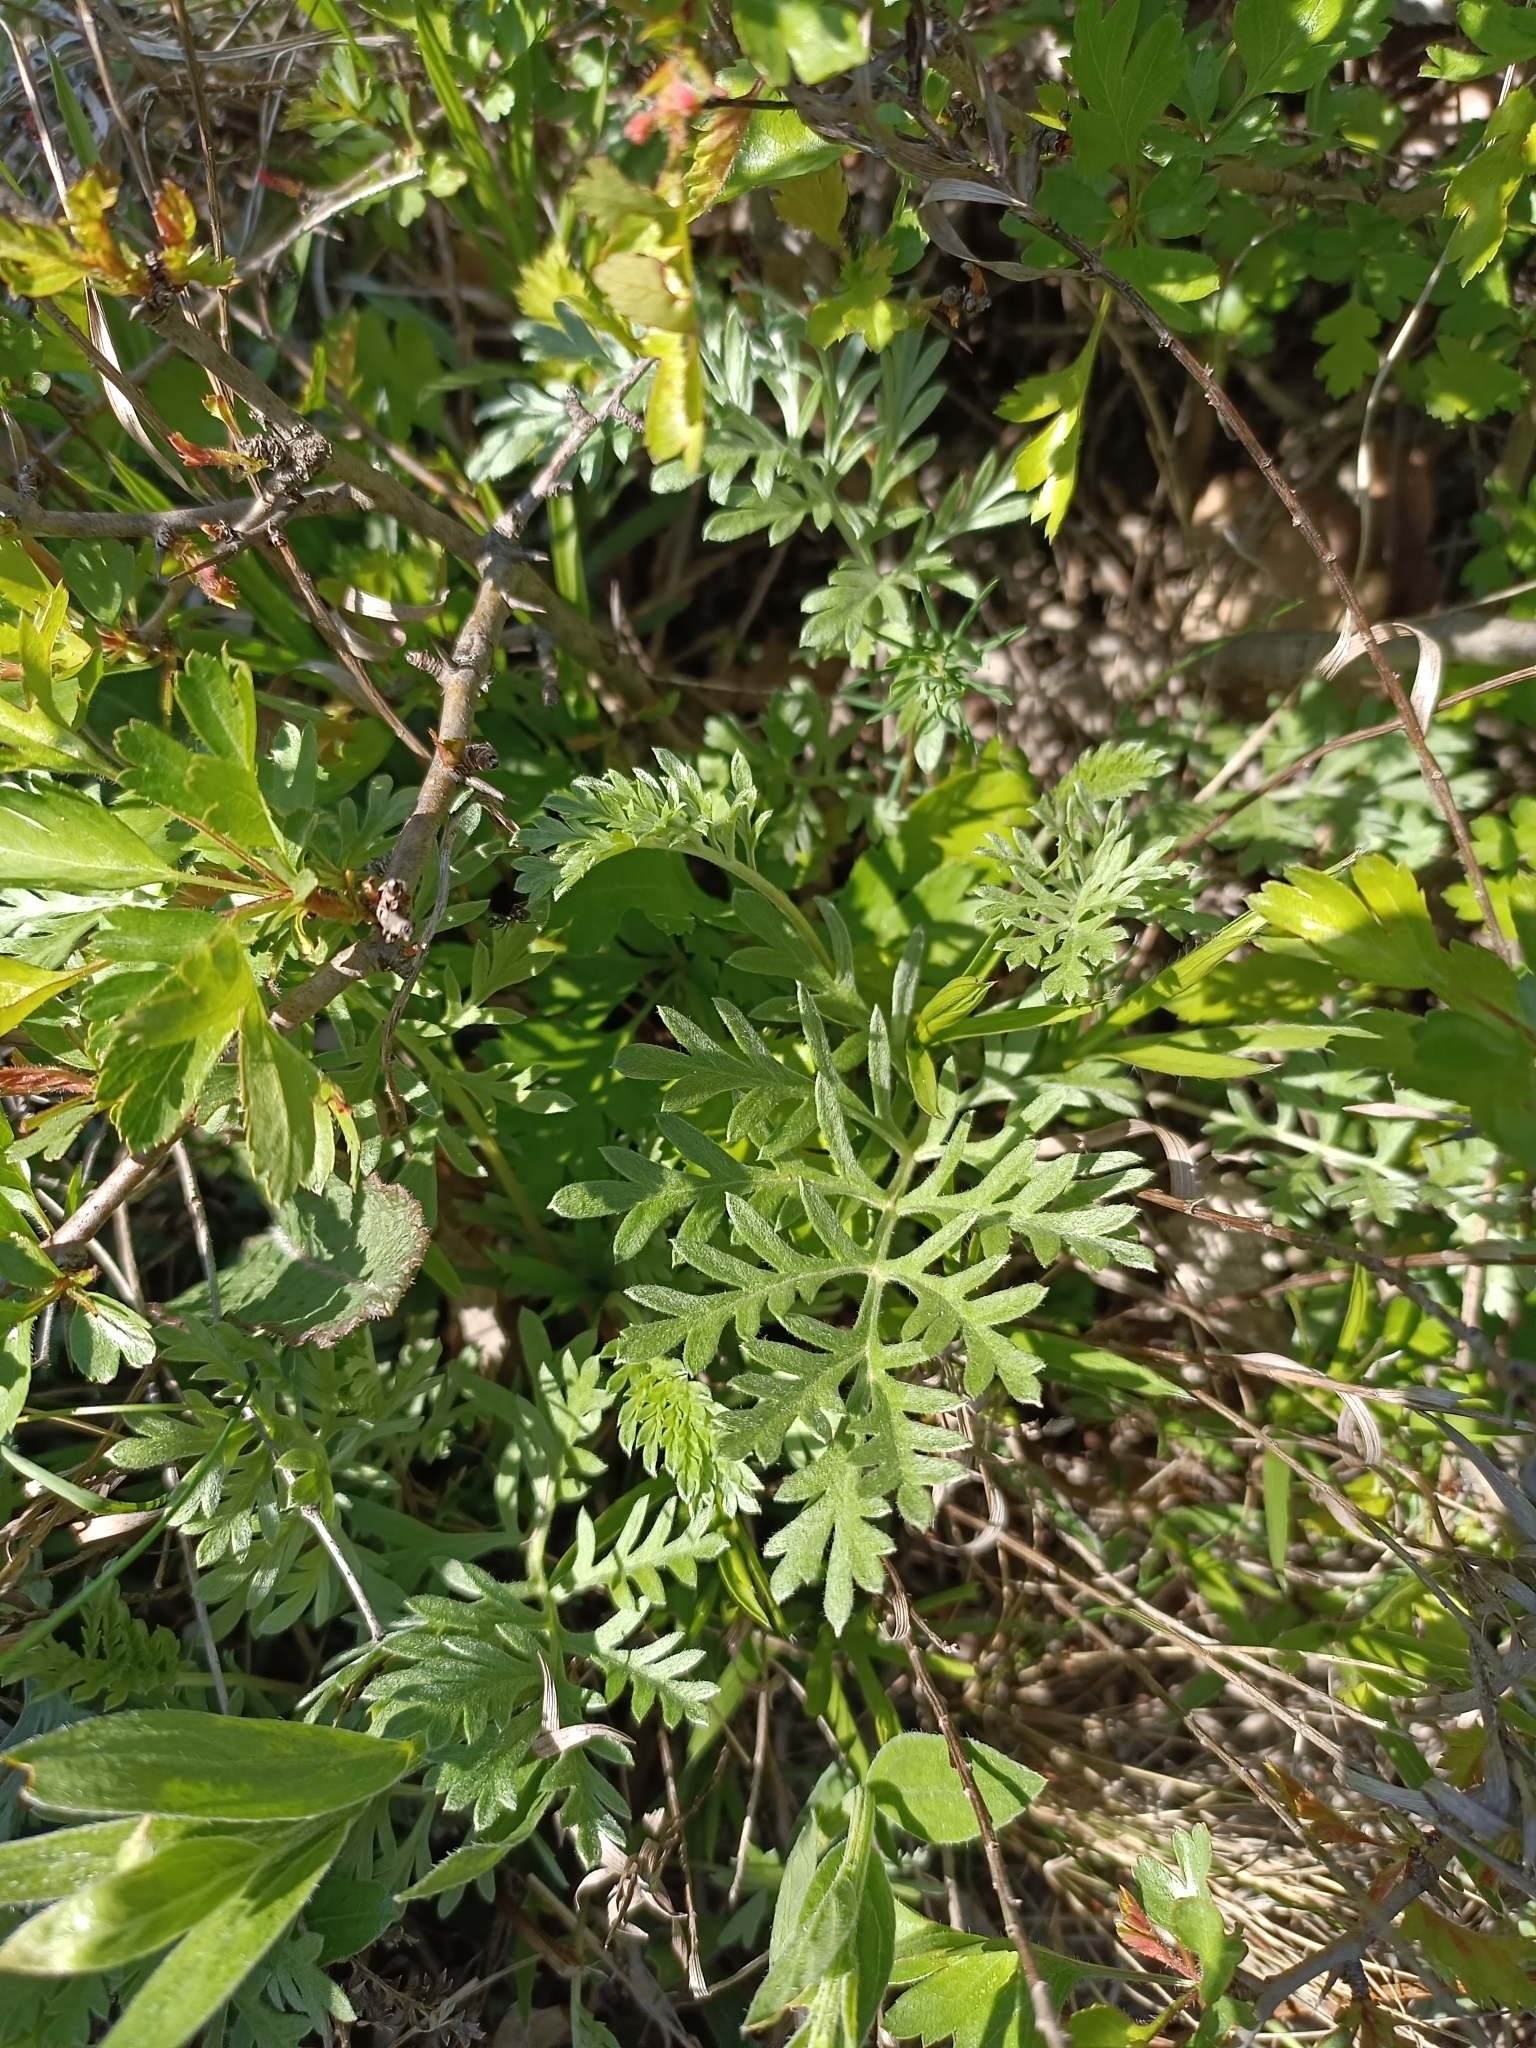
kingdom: Plantae
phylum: Tracheophyta
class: Magnoliopsida
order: Asterales
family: Asteraceae
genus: Artemisia
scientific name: Artemisia pancicii
